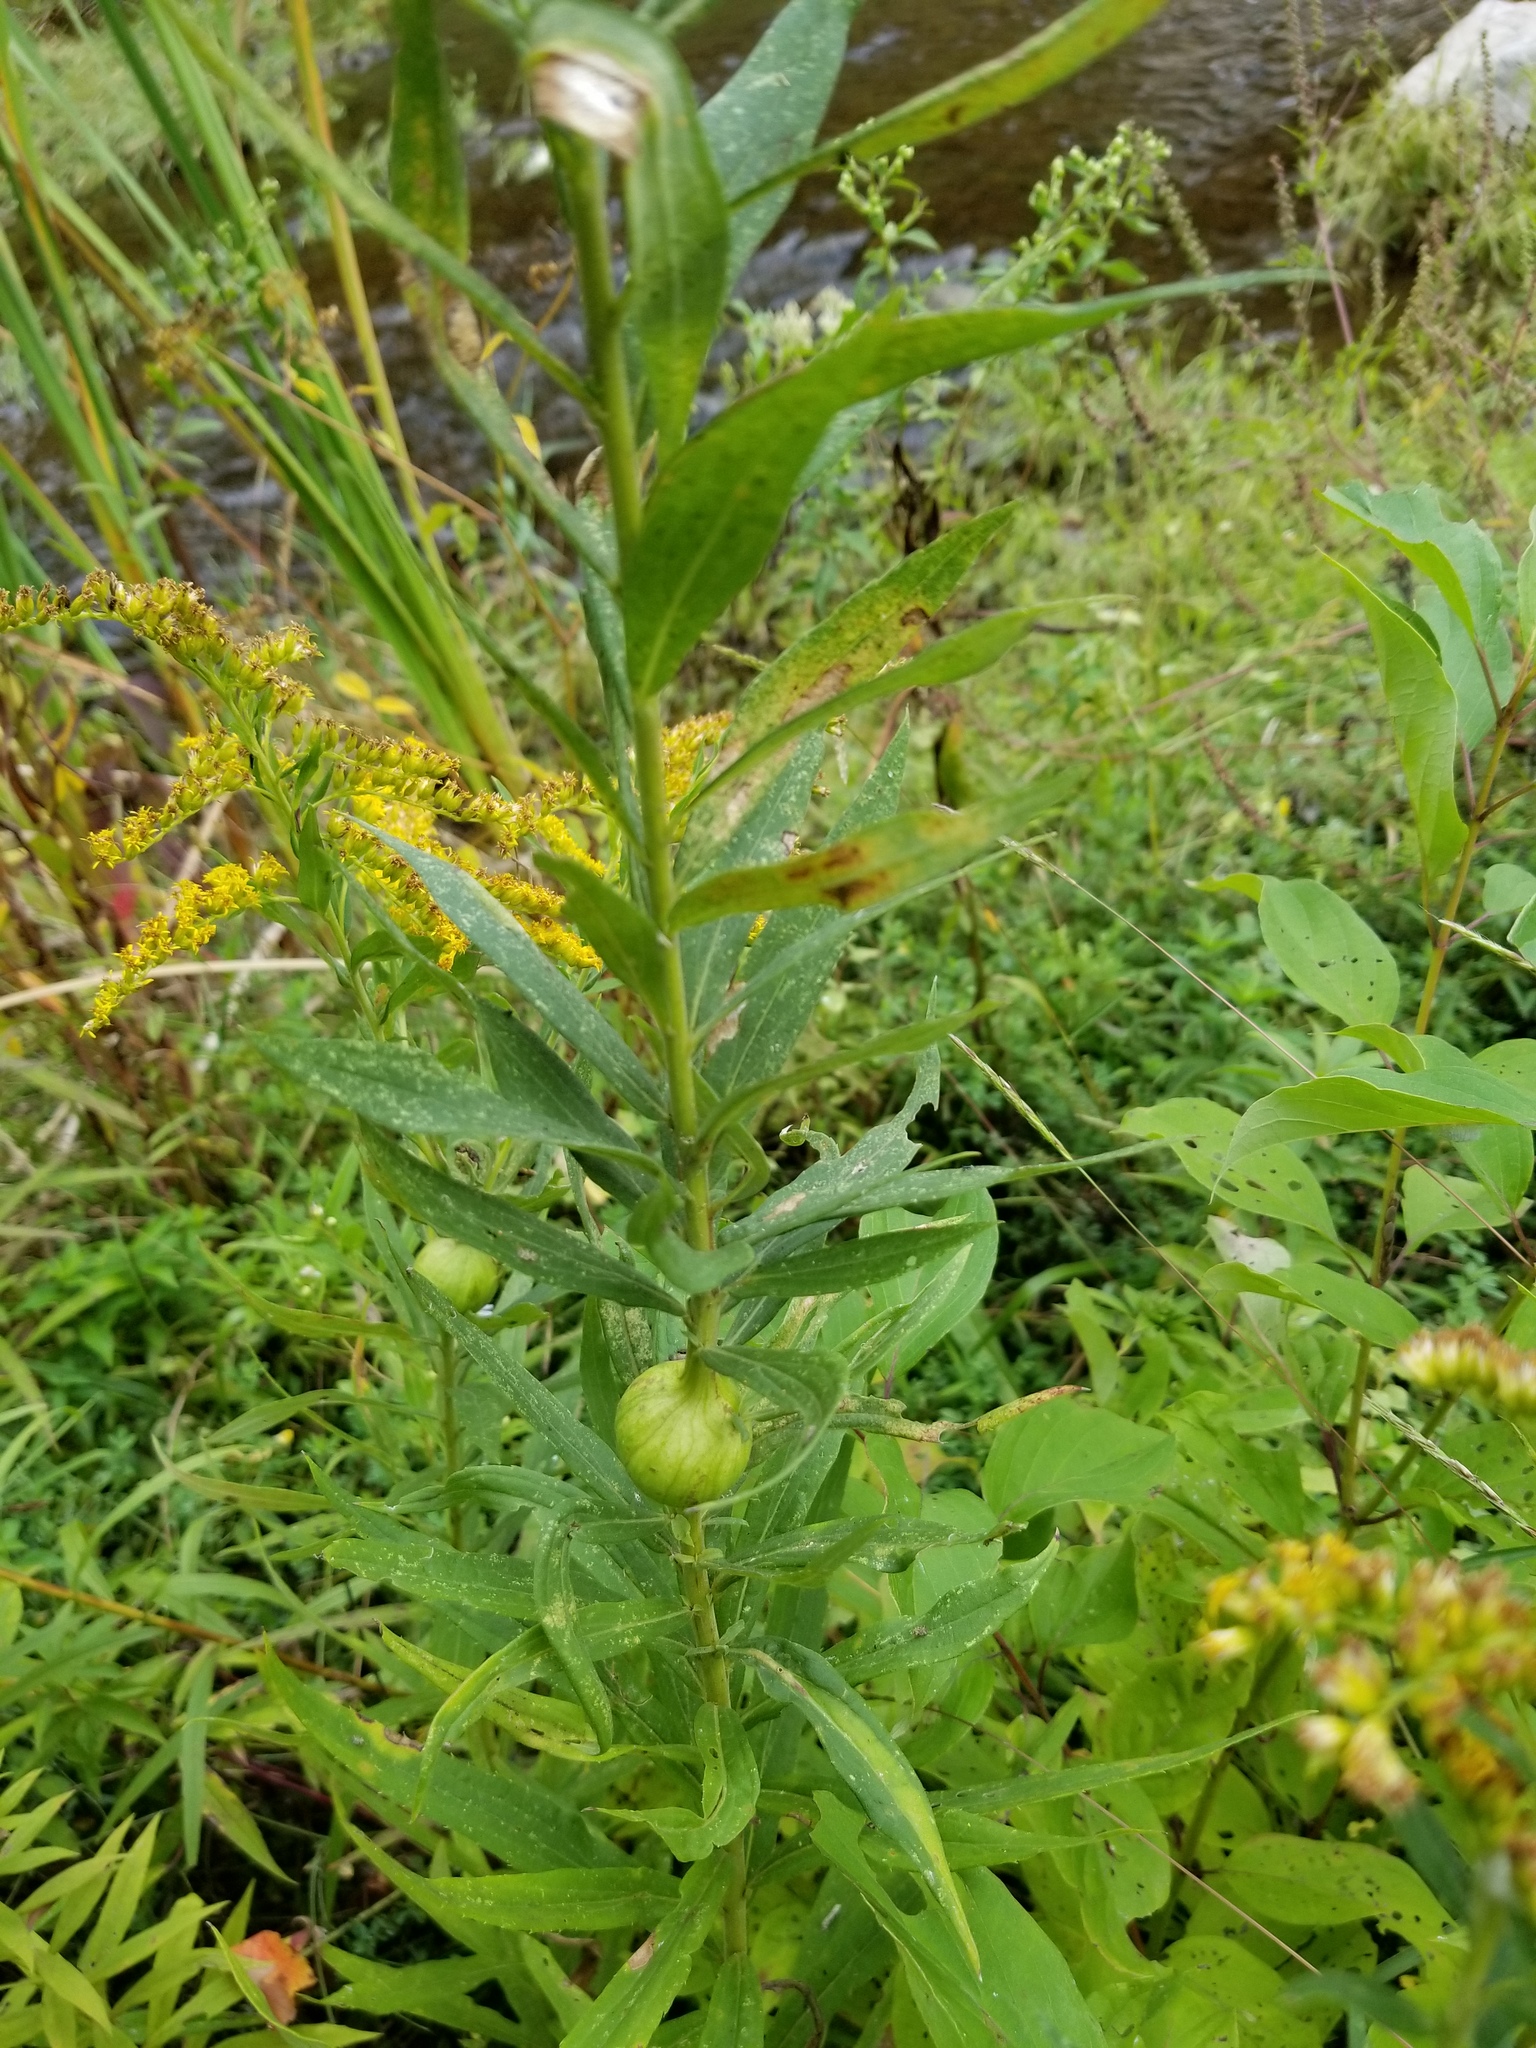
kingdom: Animalia
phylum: Arthropoda
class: Insecta
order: Diptera
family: Tephritidae
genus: Eurosta
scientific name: Eurosta solidaginis
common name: Goldenrod gall fly
